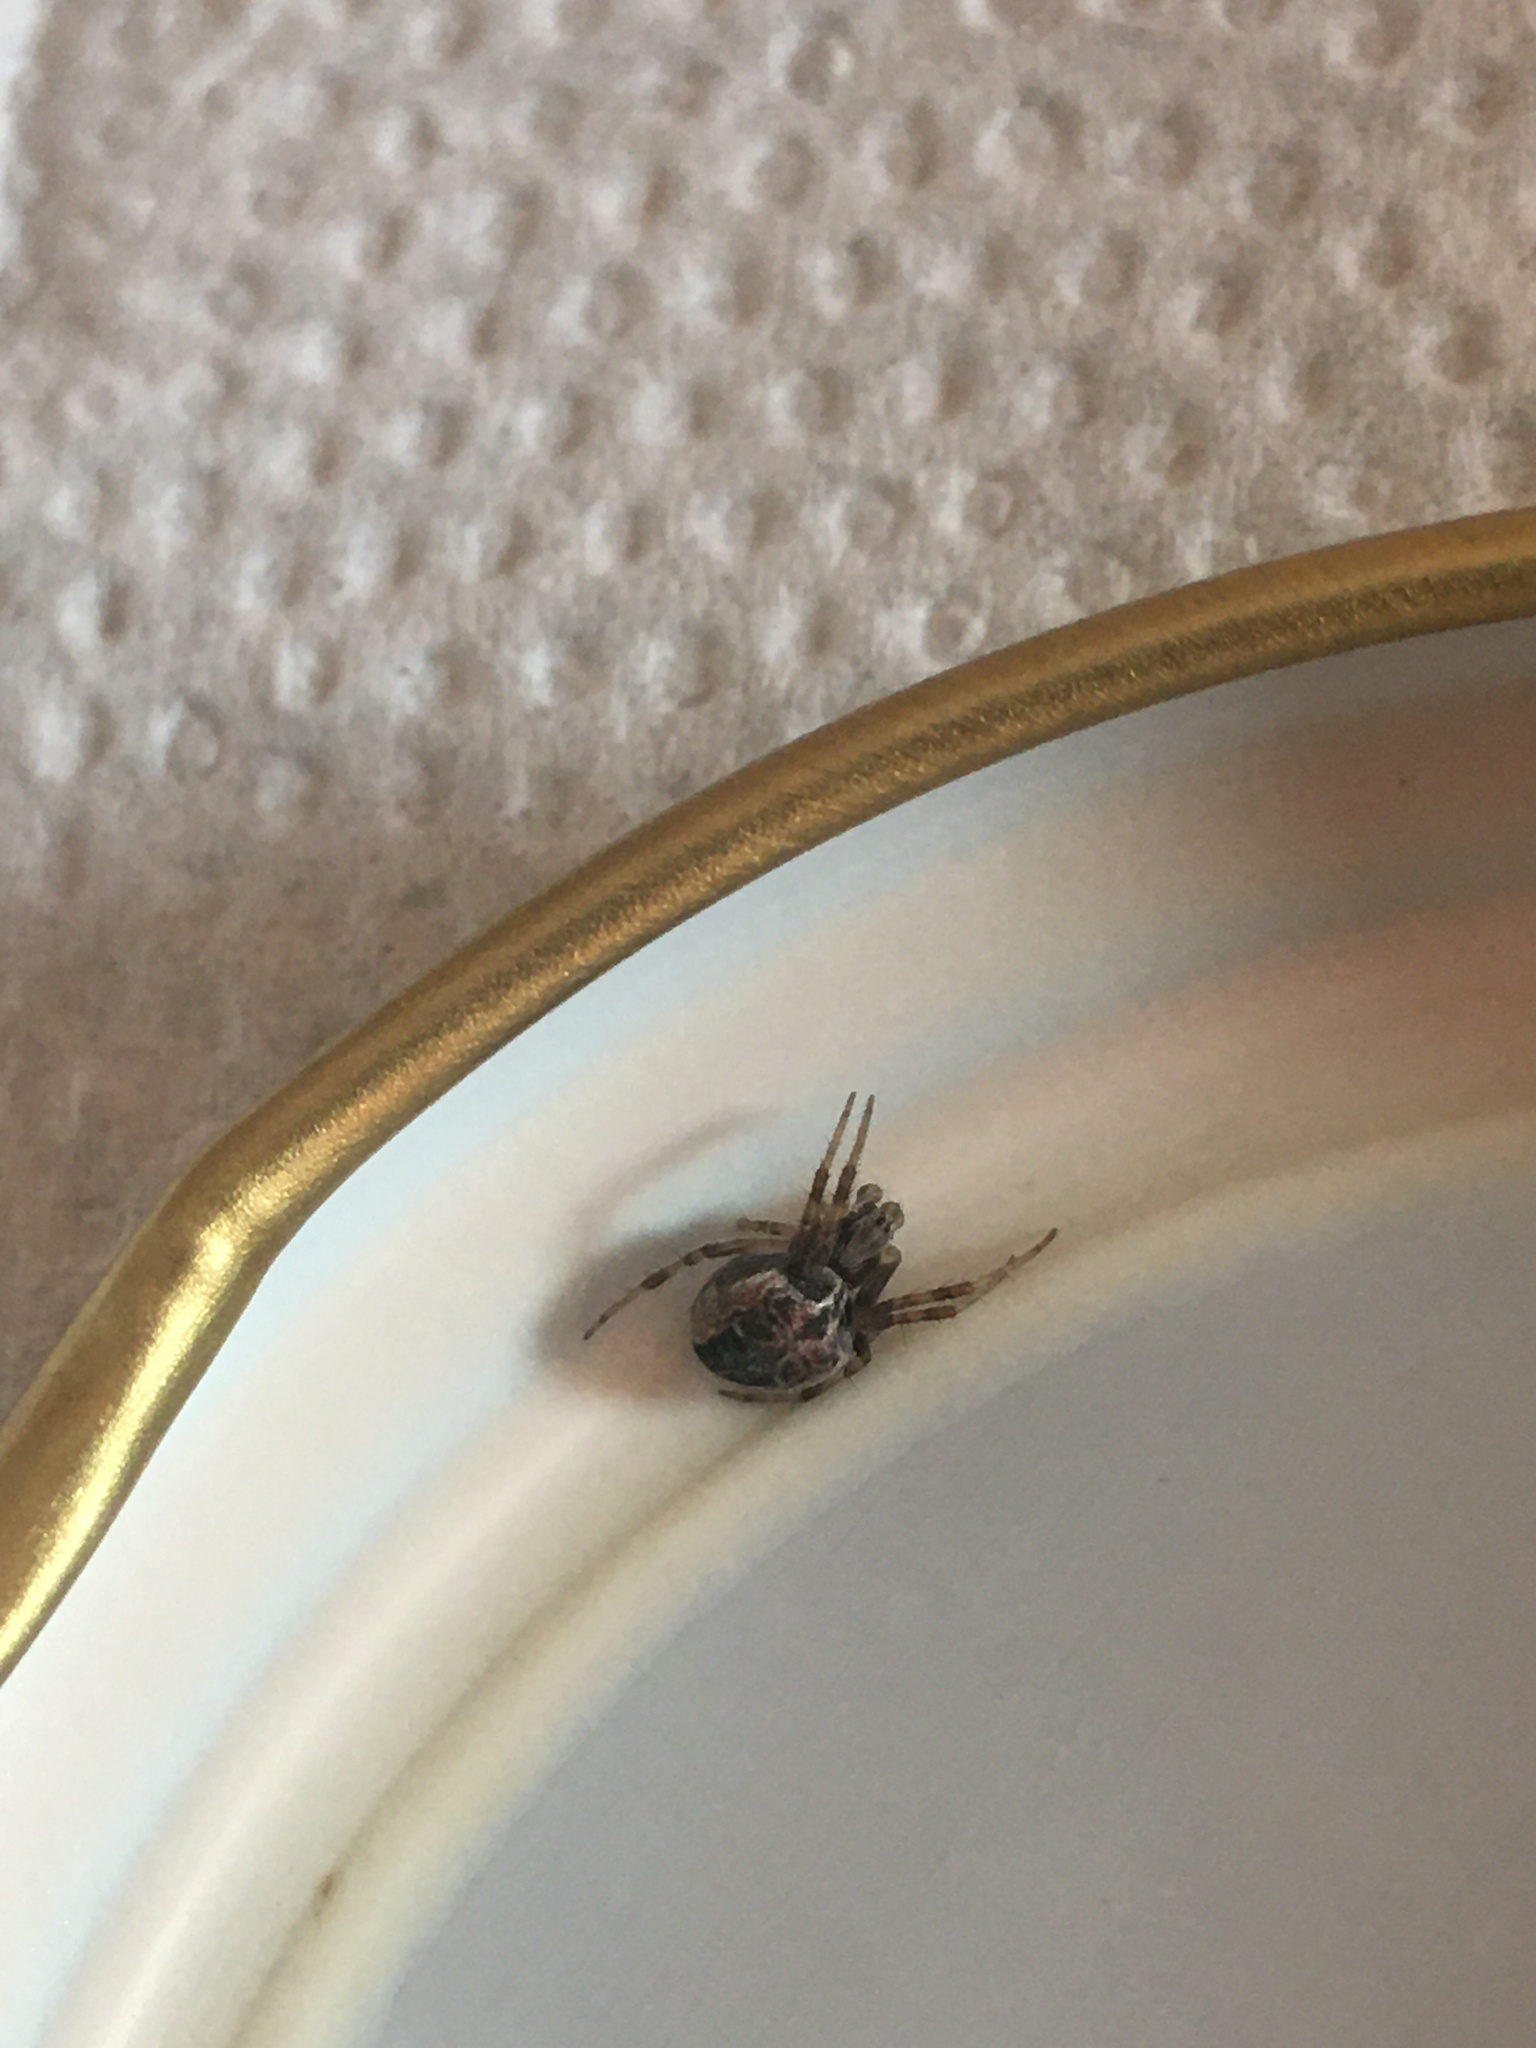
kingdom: Animalia
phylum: Arthropoda
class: Arachnida
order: Araneae
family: Araneidae
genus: Metepeira
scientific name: Metepeira
